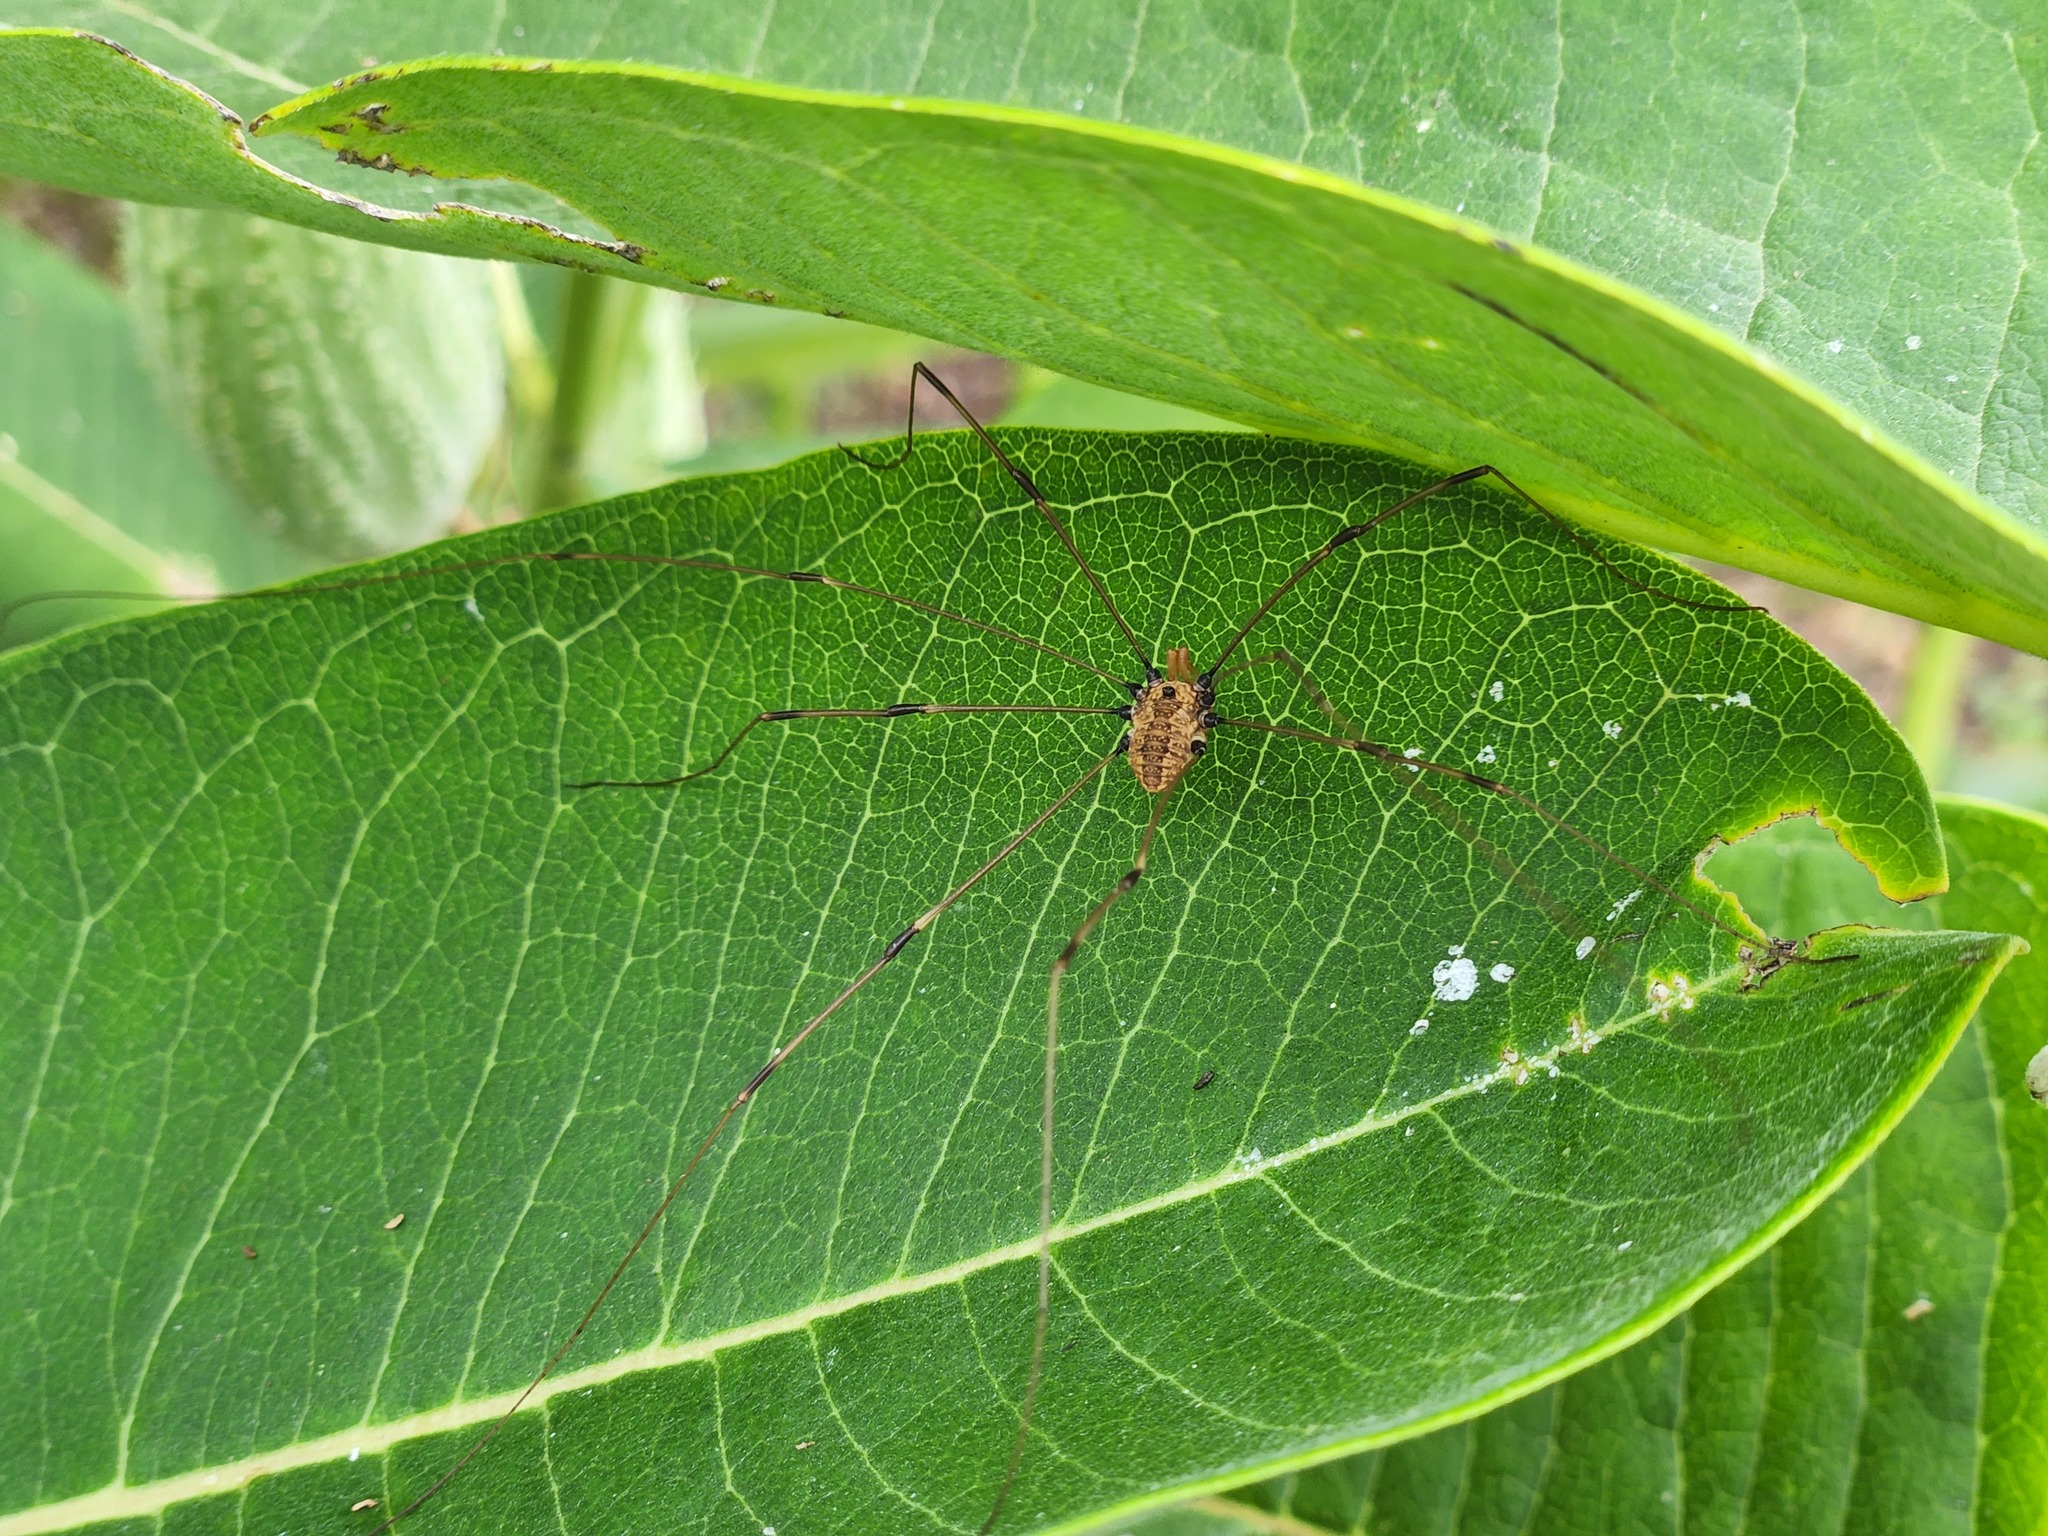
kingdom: Animalia
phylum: Arthropoda
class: Arachnida
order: Opiliones
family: Sclerosomatidae
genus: Leiobunum
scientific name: Leiobunum vittatum
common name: Eastern harvestman
